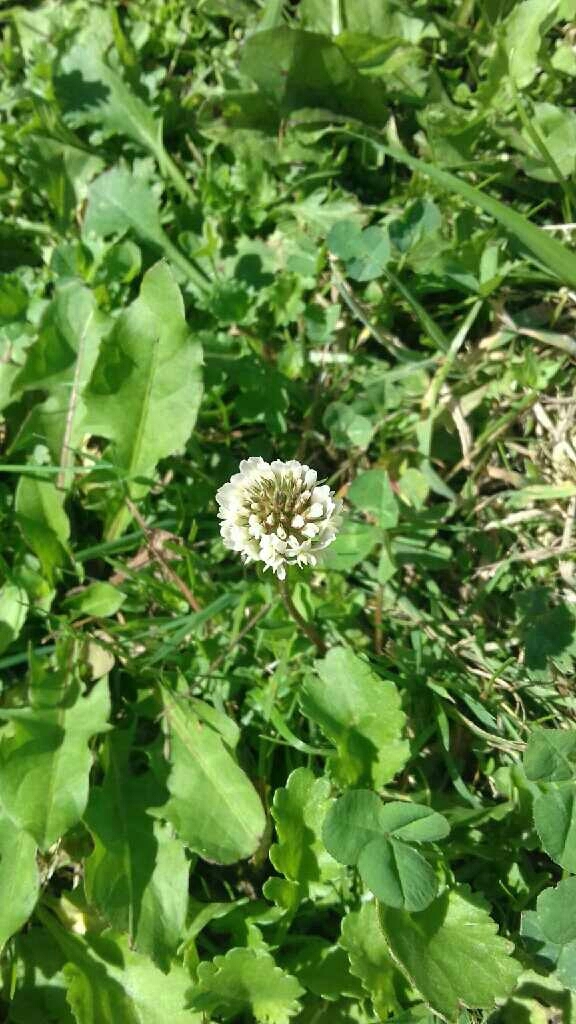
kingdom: Plantae
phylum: Tracheophyta
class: Magnoliopsida
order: Fabales
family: Fabaceae
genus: Trifolium
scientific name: Trifolium repens
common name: White clover
